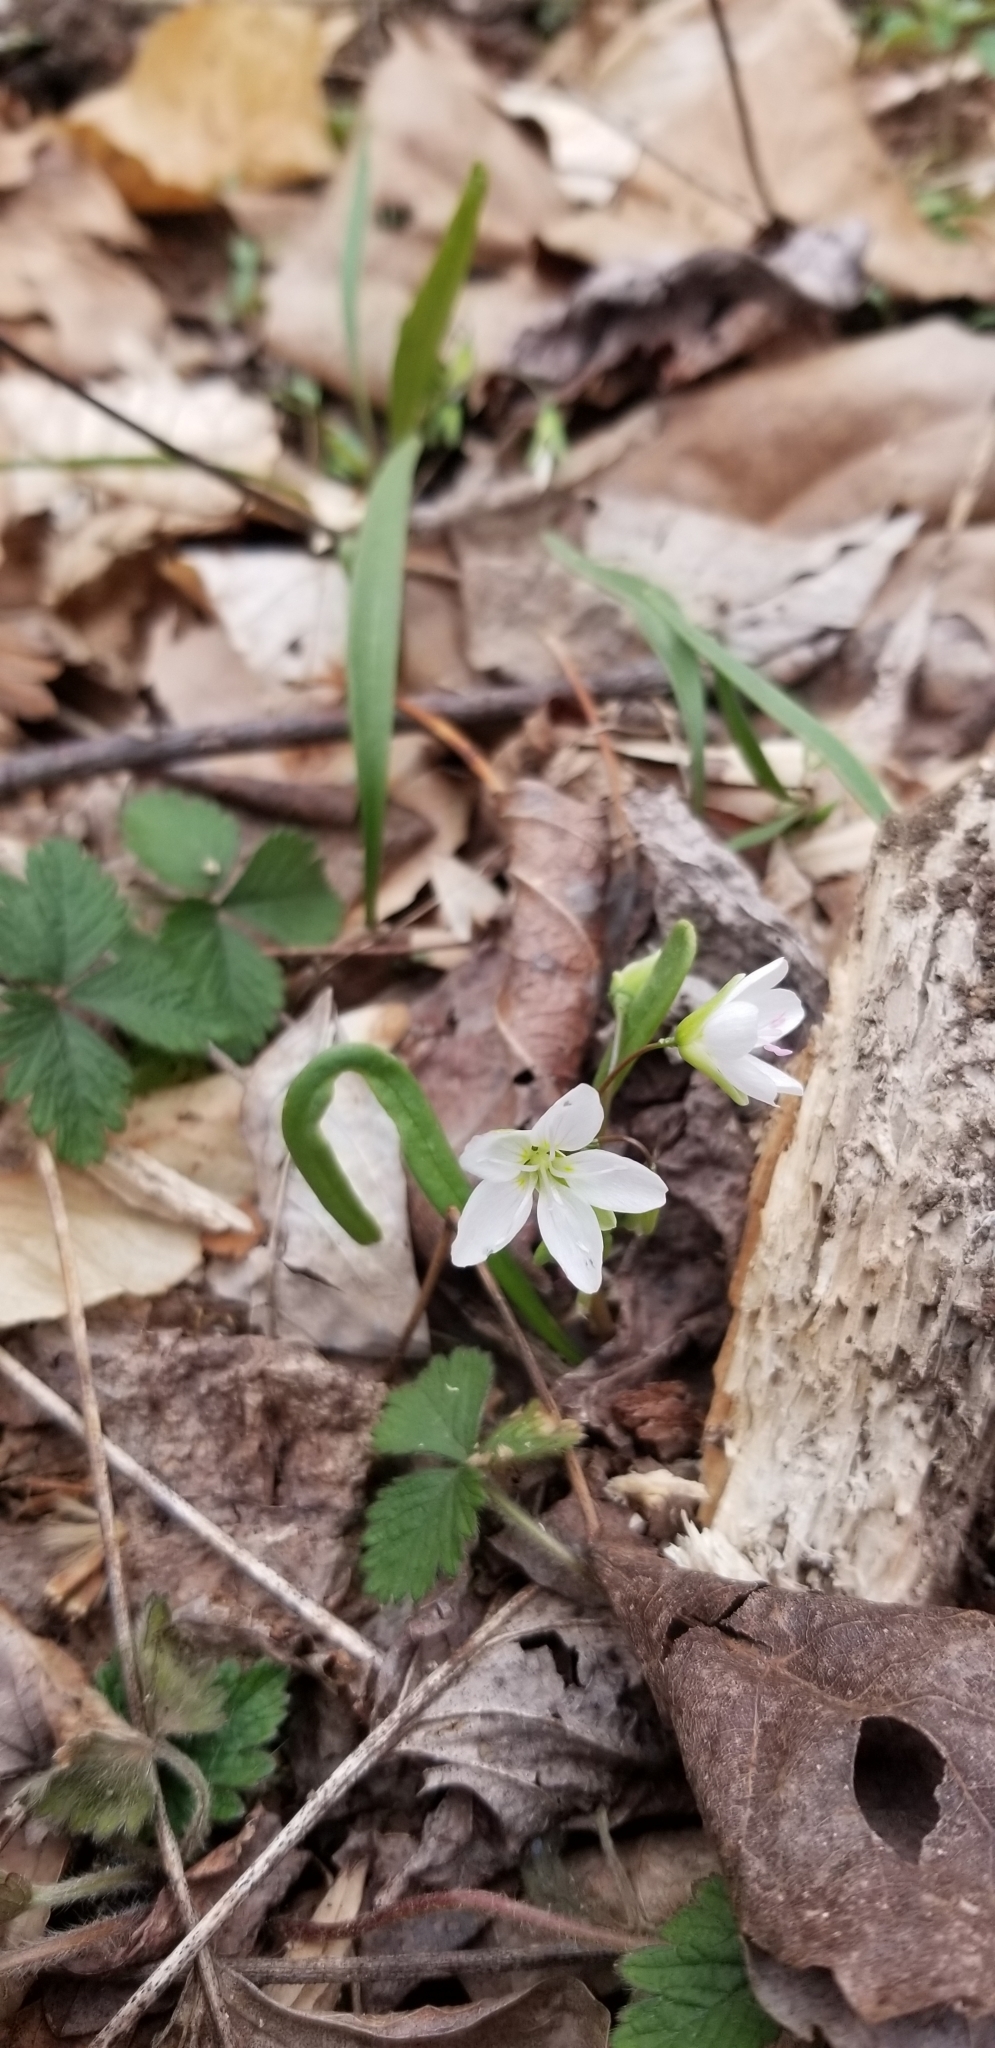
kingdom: Plantae
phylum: Tracheophyta
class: Magnoliopsida
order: Caryophyllales
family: Montiaceae
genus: Claytonia
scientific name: Claytonia virginica
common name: Virginia springbeauty
